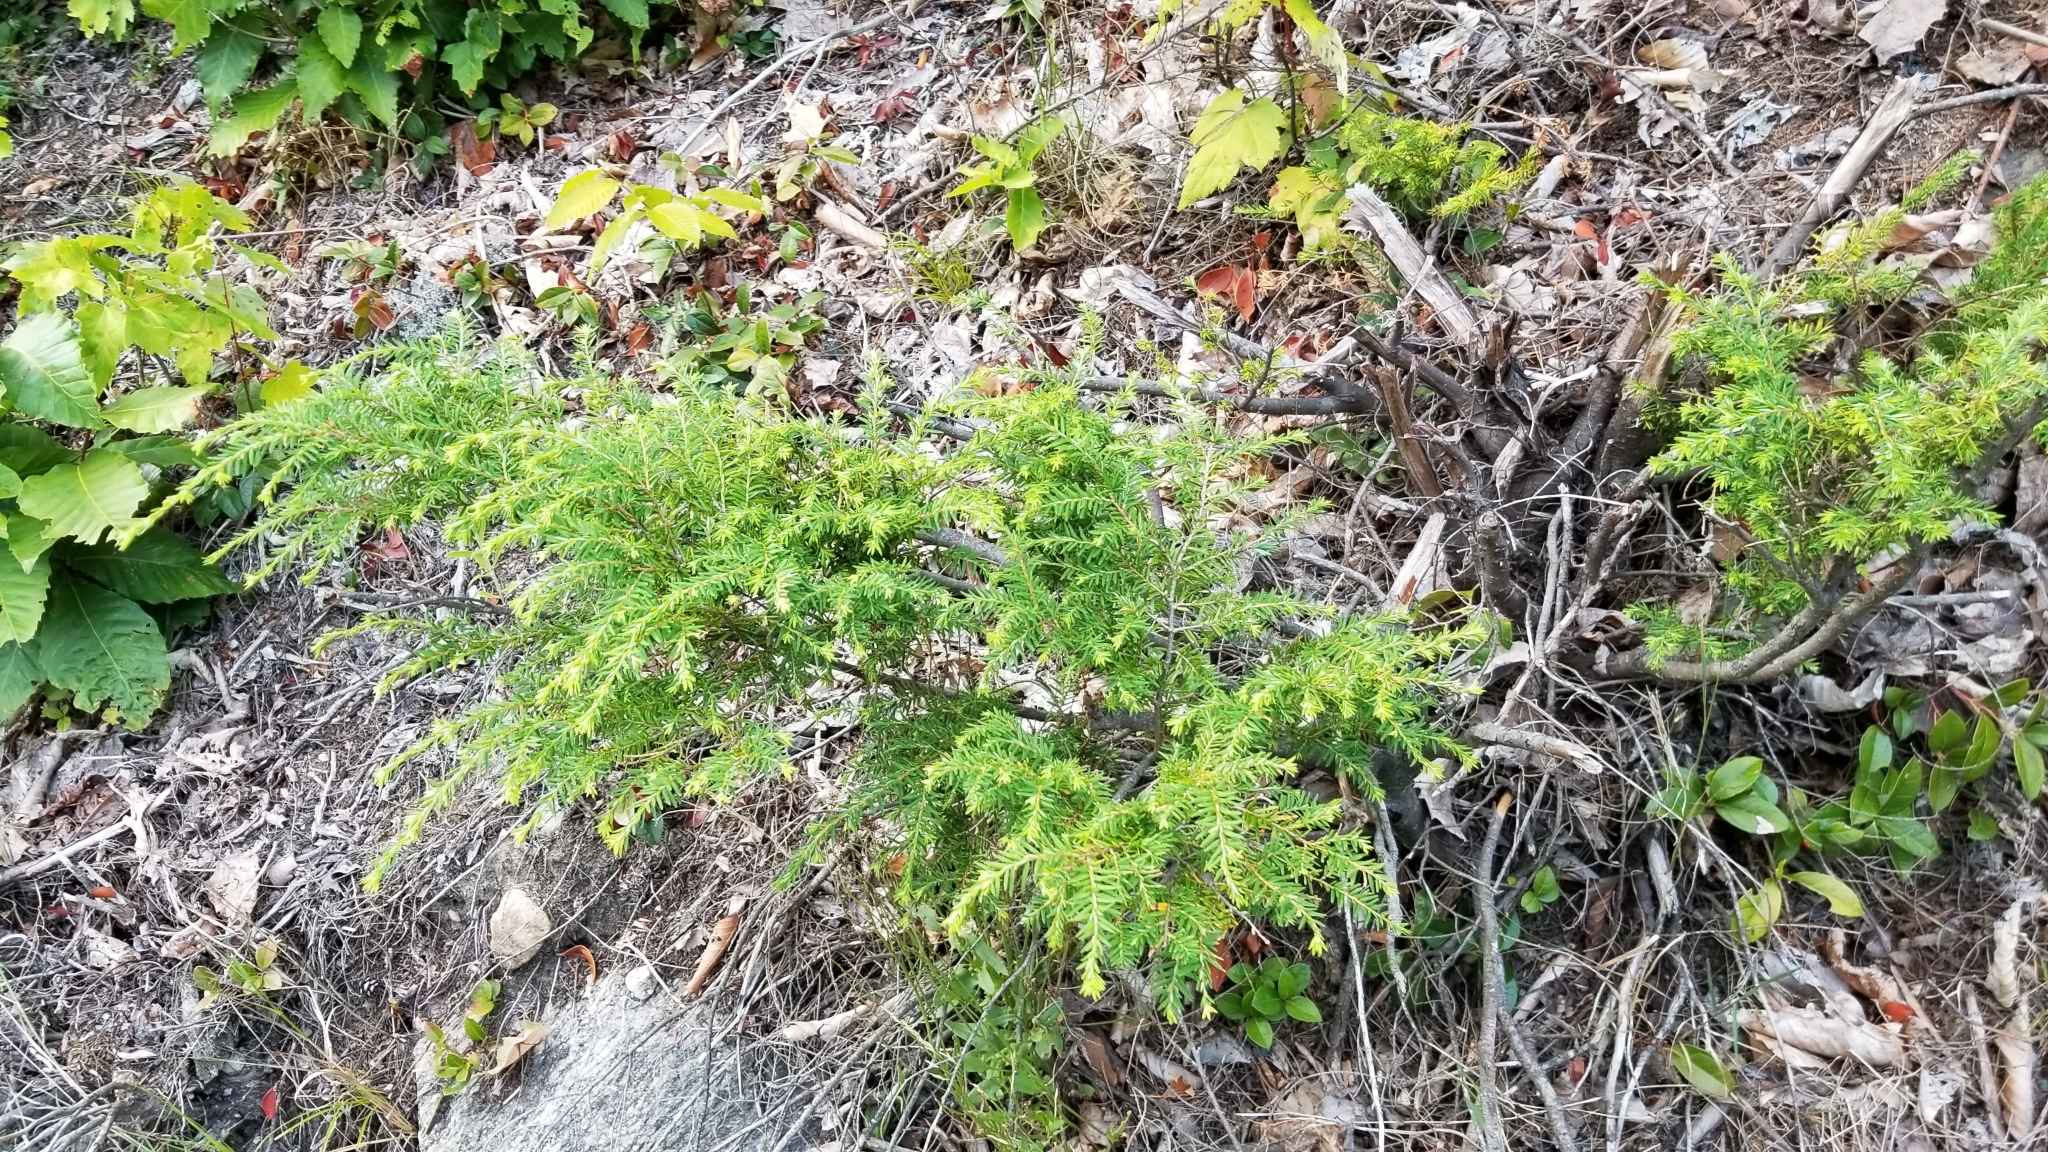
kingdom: Plantae
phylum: Tracheophyta
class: Pinopsida
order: Pinales
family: Pinaceae
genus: Tsuga
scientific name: Tsuga canadensis
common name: Eastern hemlock
